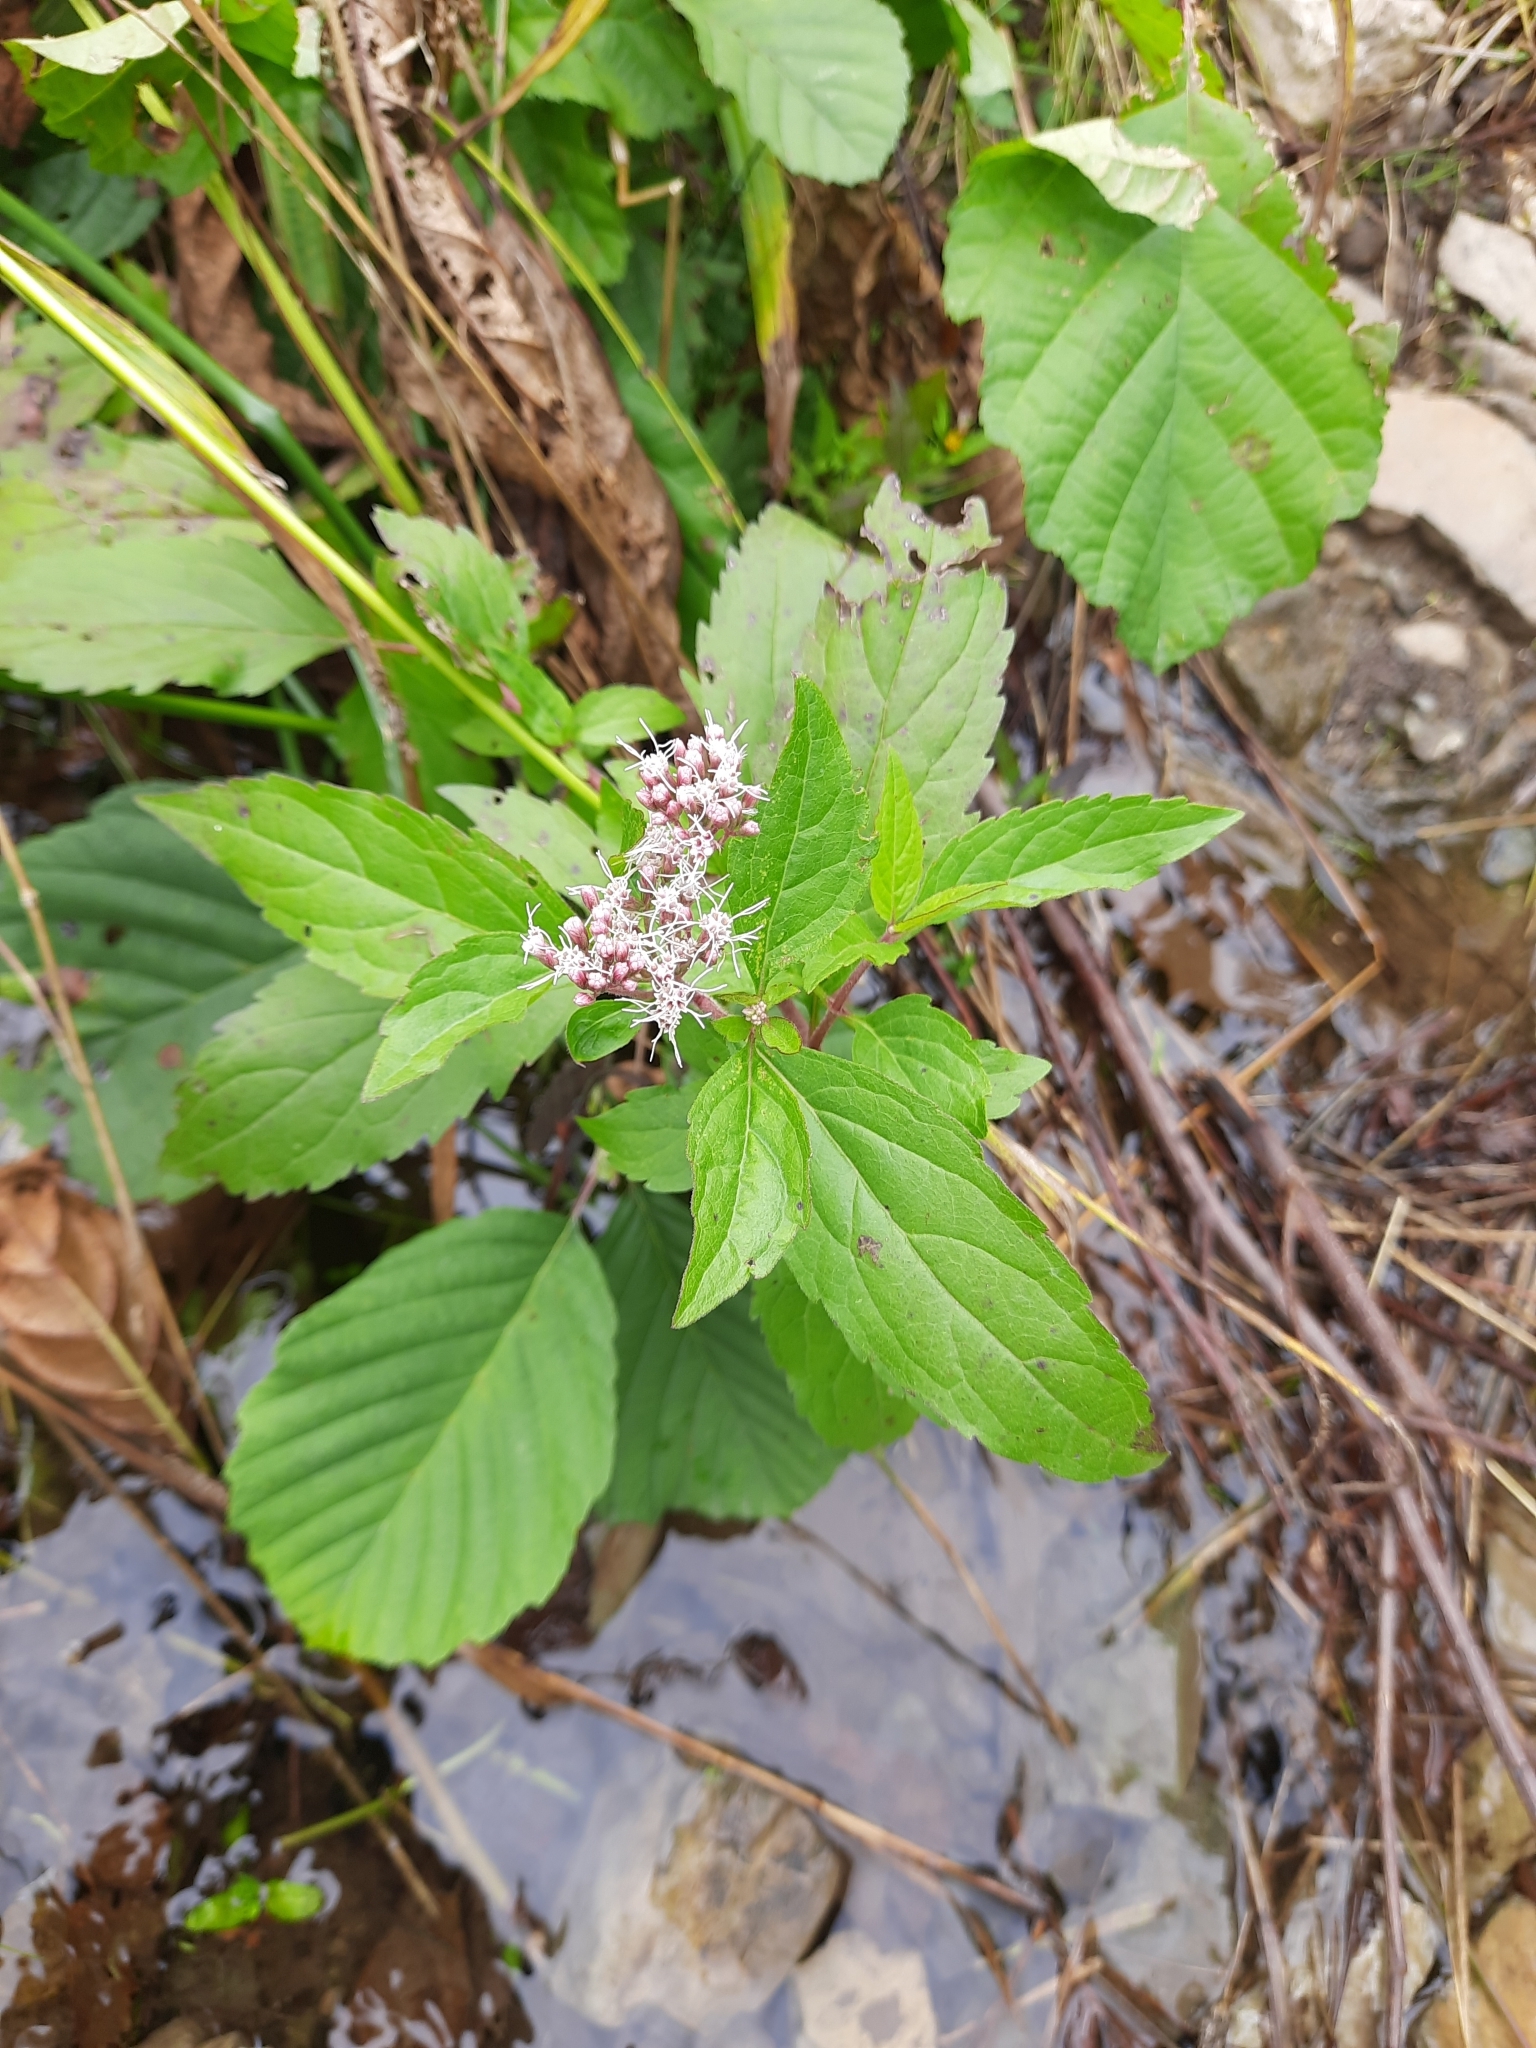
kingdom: Plantae
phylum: Tracheophyta
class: Magnoliopsida
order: Asterales
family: Asteraceae
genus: Eupatorium
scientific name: Eupatorium cannabinum
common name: Hemp-agrimony
